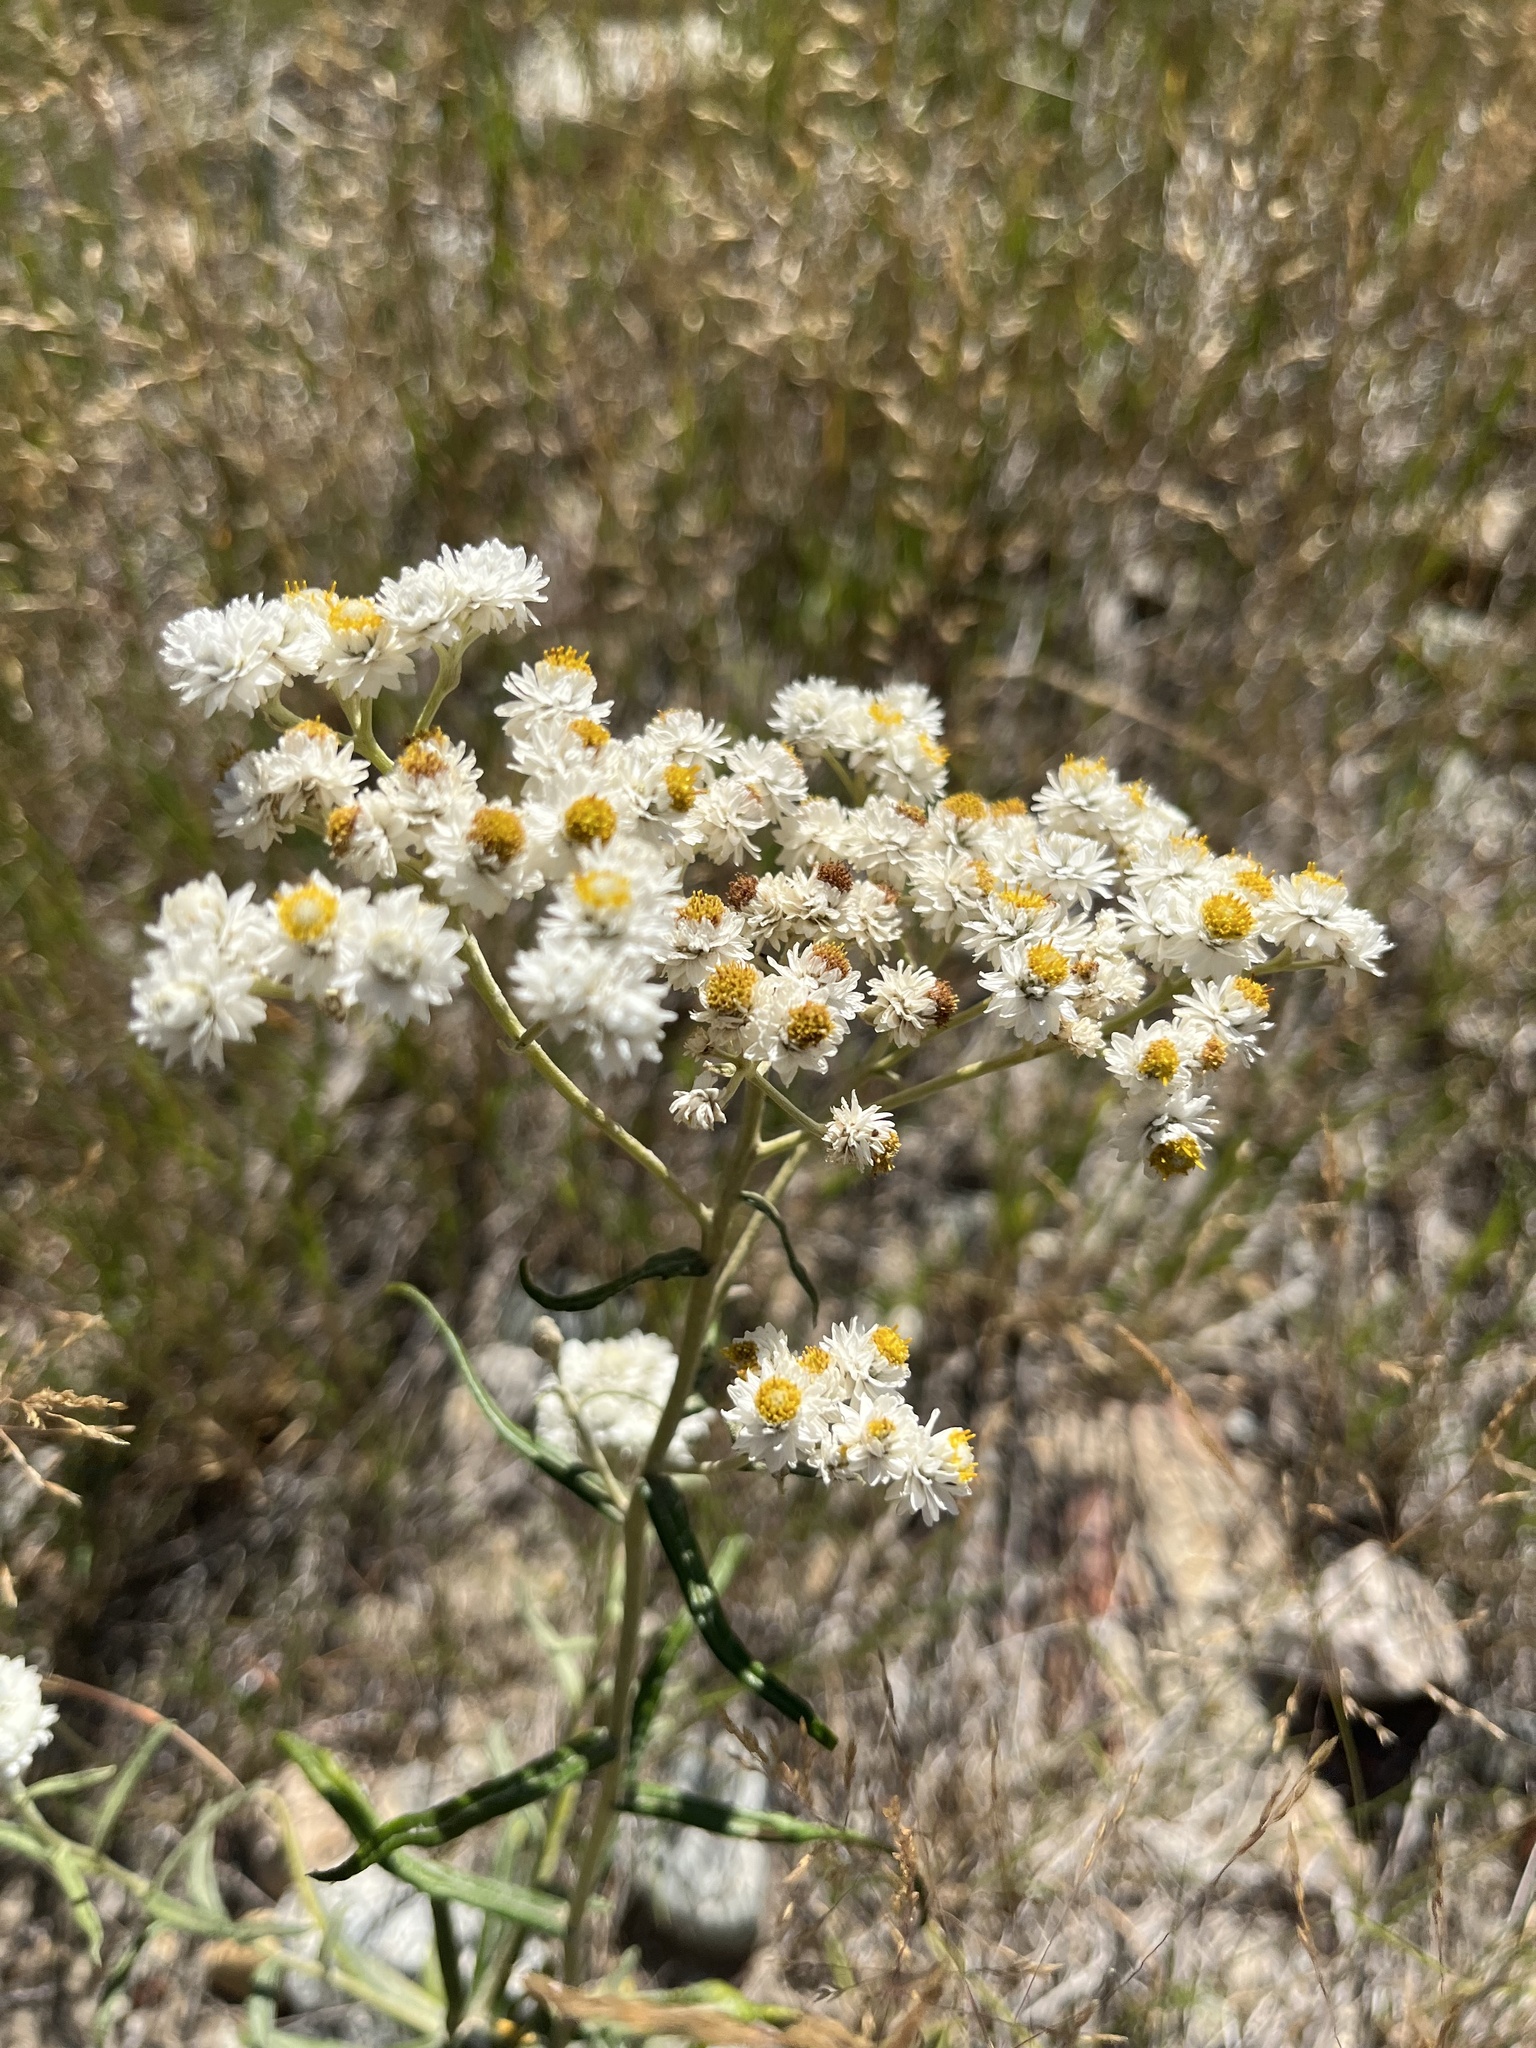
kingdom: Plantae
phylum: Tracheophyta
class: Magnoliopsida
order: Asterales
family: Asteraceae
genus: Anaphalis
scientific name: Anaphalis margaritacea
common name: Pearly everlasting
